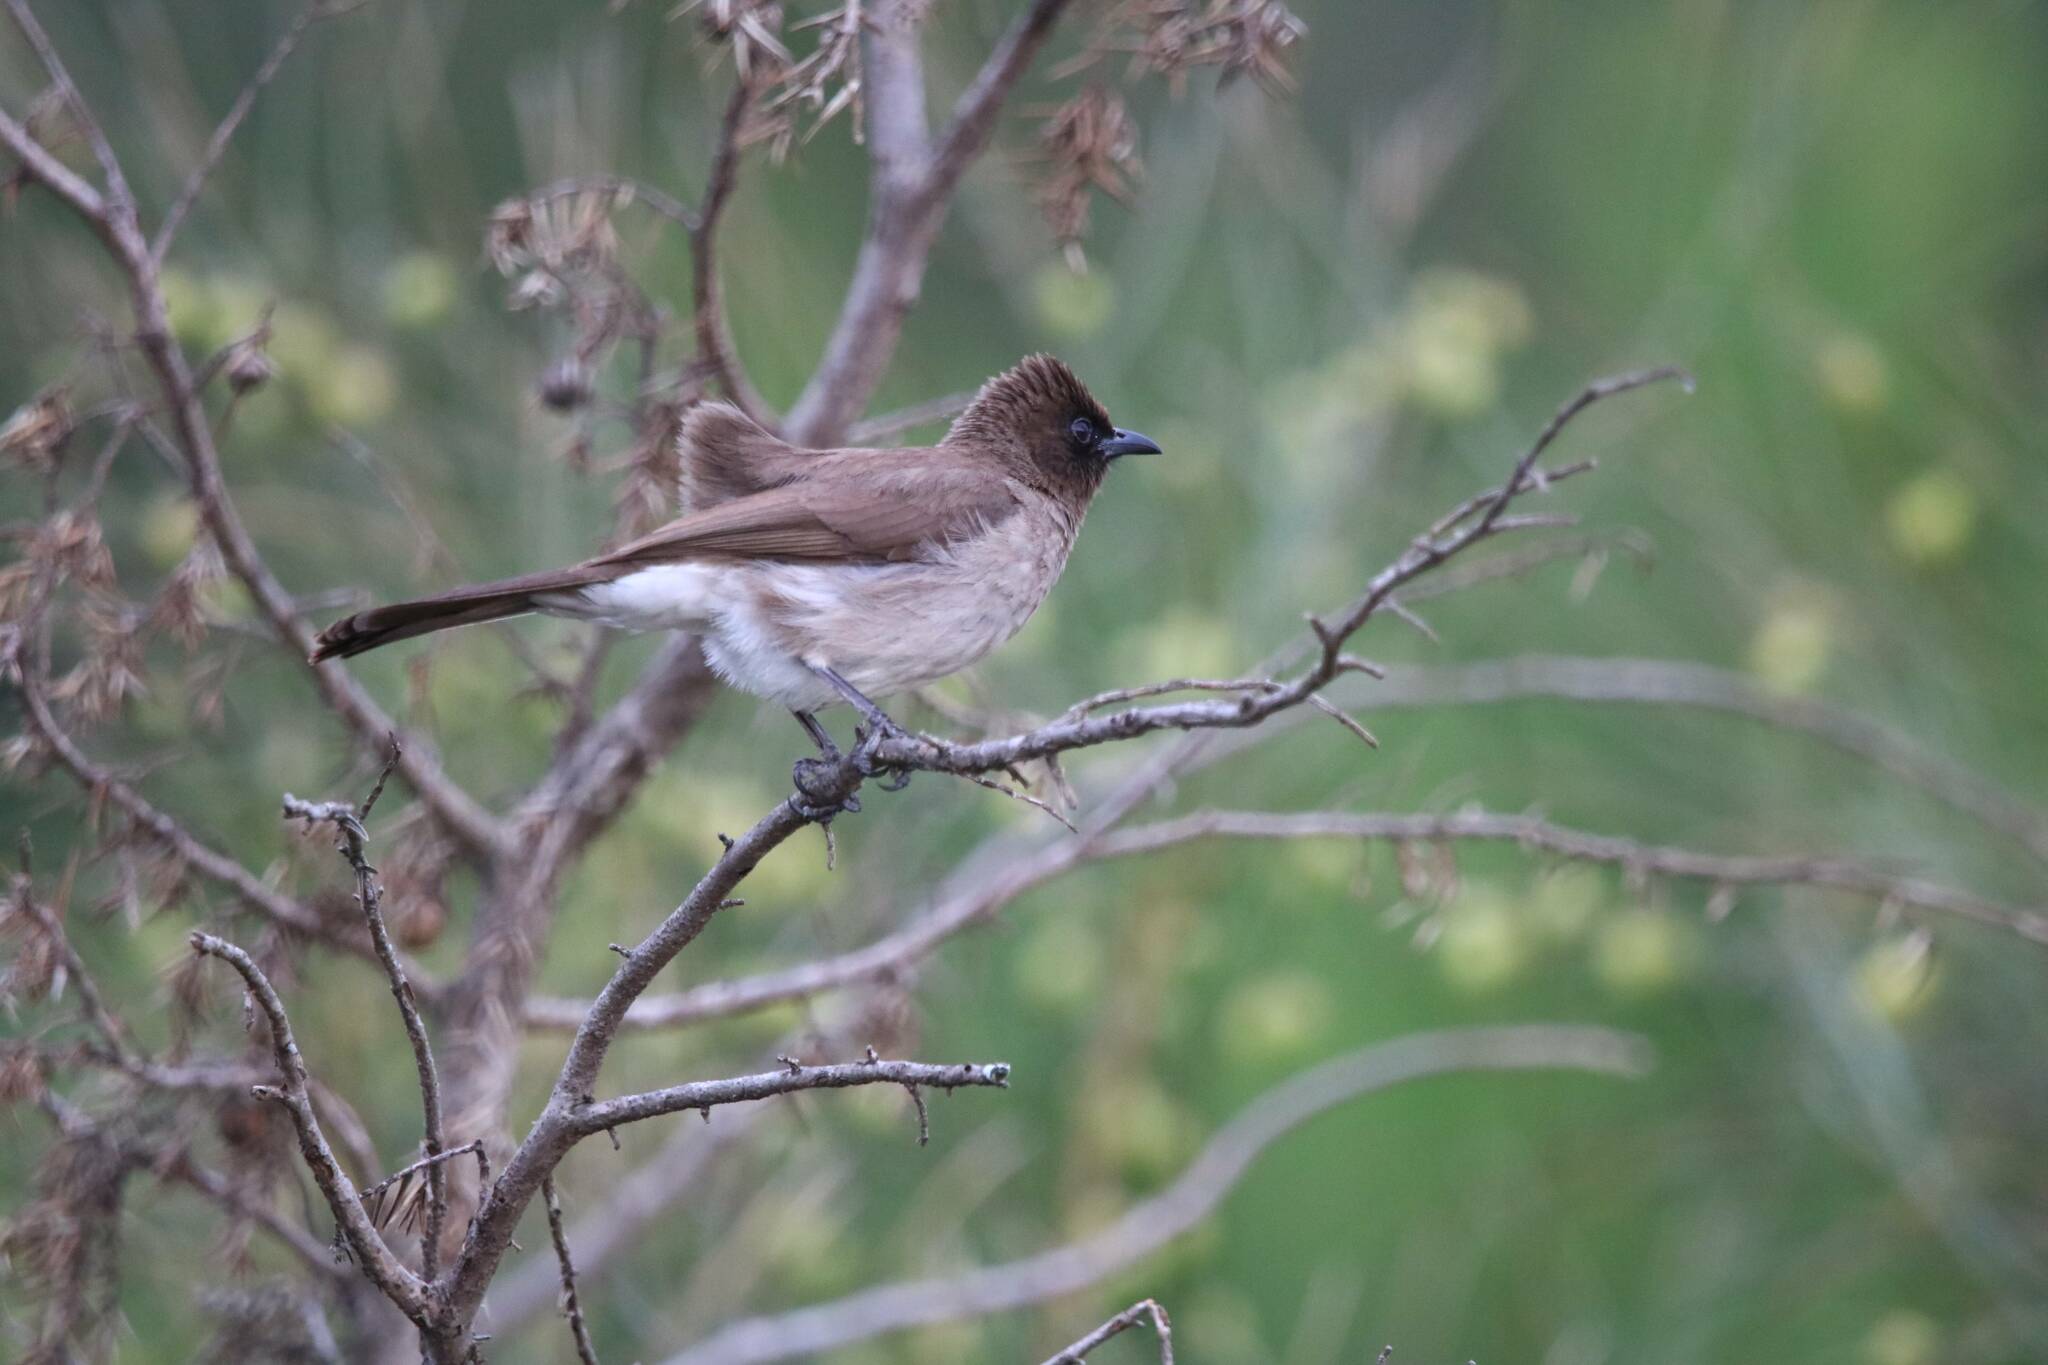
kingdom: Animalia
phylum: Chordata
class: Aves
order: Passeriformes
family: Pycnonotidae
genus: Pycnonotus
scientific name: Pycnonotus barbatus
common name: Common bulbul
